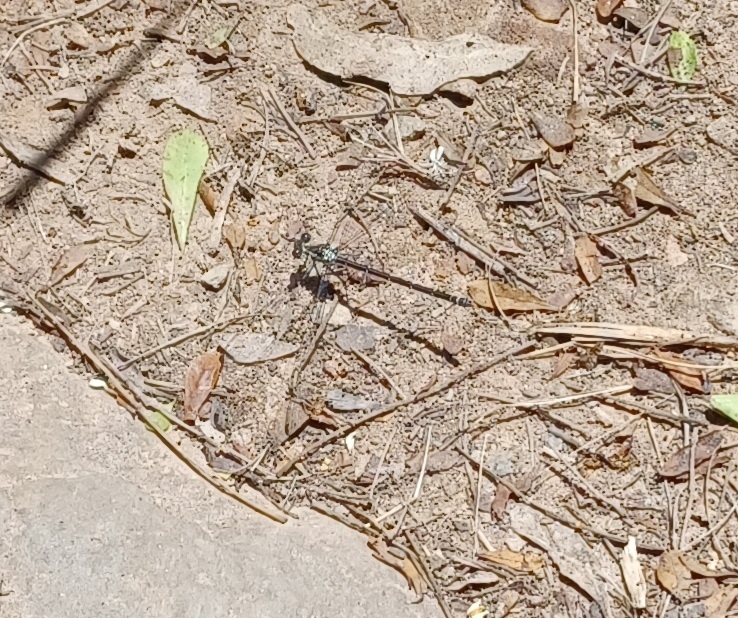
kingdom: Animalia
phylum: Arthropoda
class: Insecta
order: Odonata
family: Argiolestidae
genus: Austroargiolestes
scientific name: Austroargiolestes icteromelas
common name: Common flatwing
